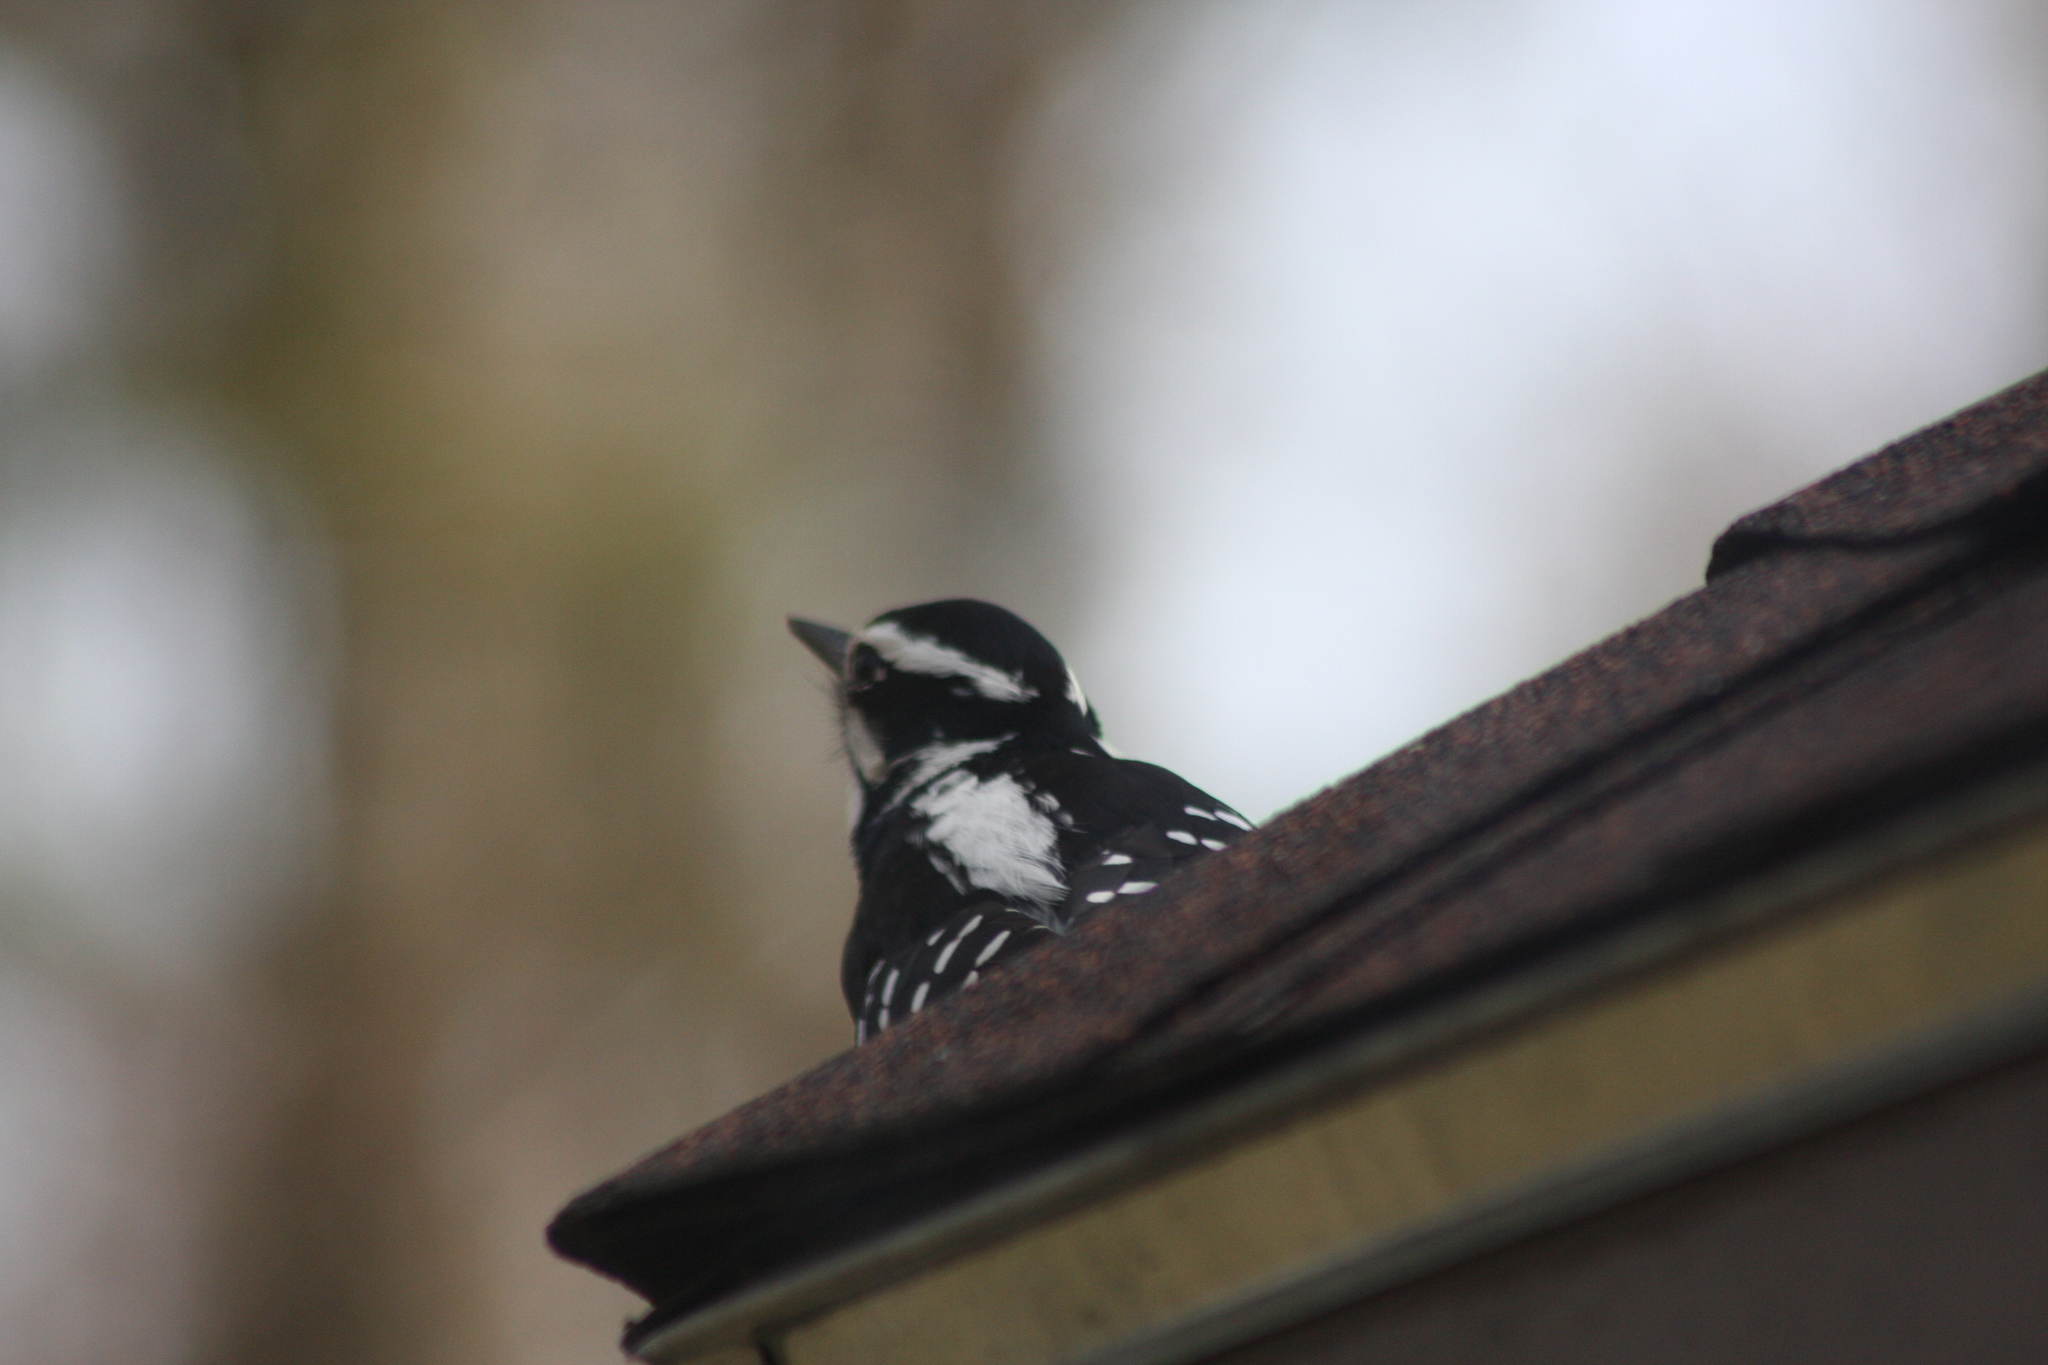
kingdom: Animalia
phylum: Chordata
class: Aves
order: Piciformes
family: Picidae
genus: Leuconotopicus
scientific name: Leuconotopicus villosus
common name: Hairy woodpecker
